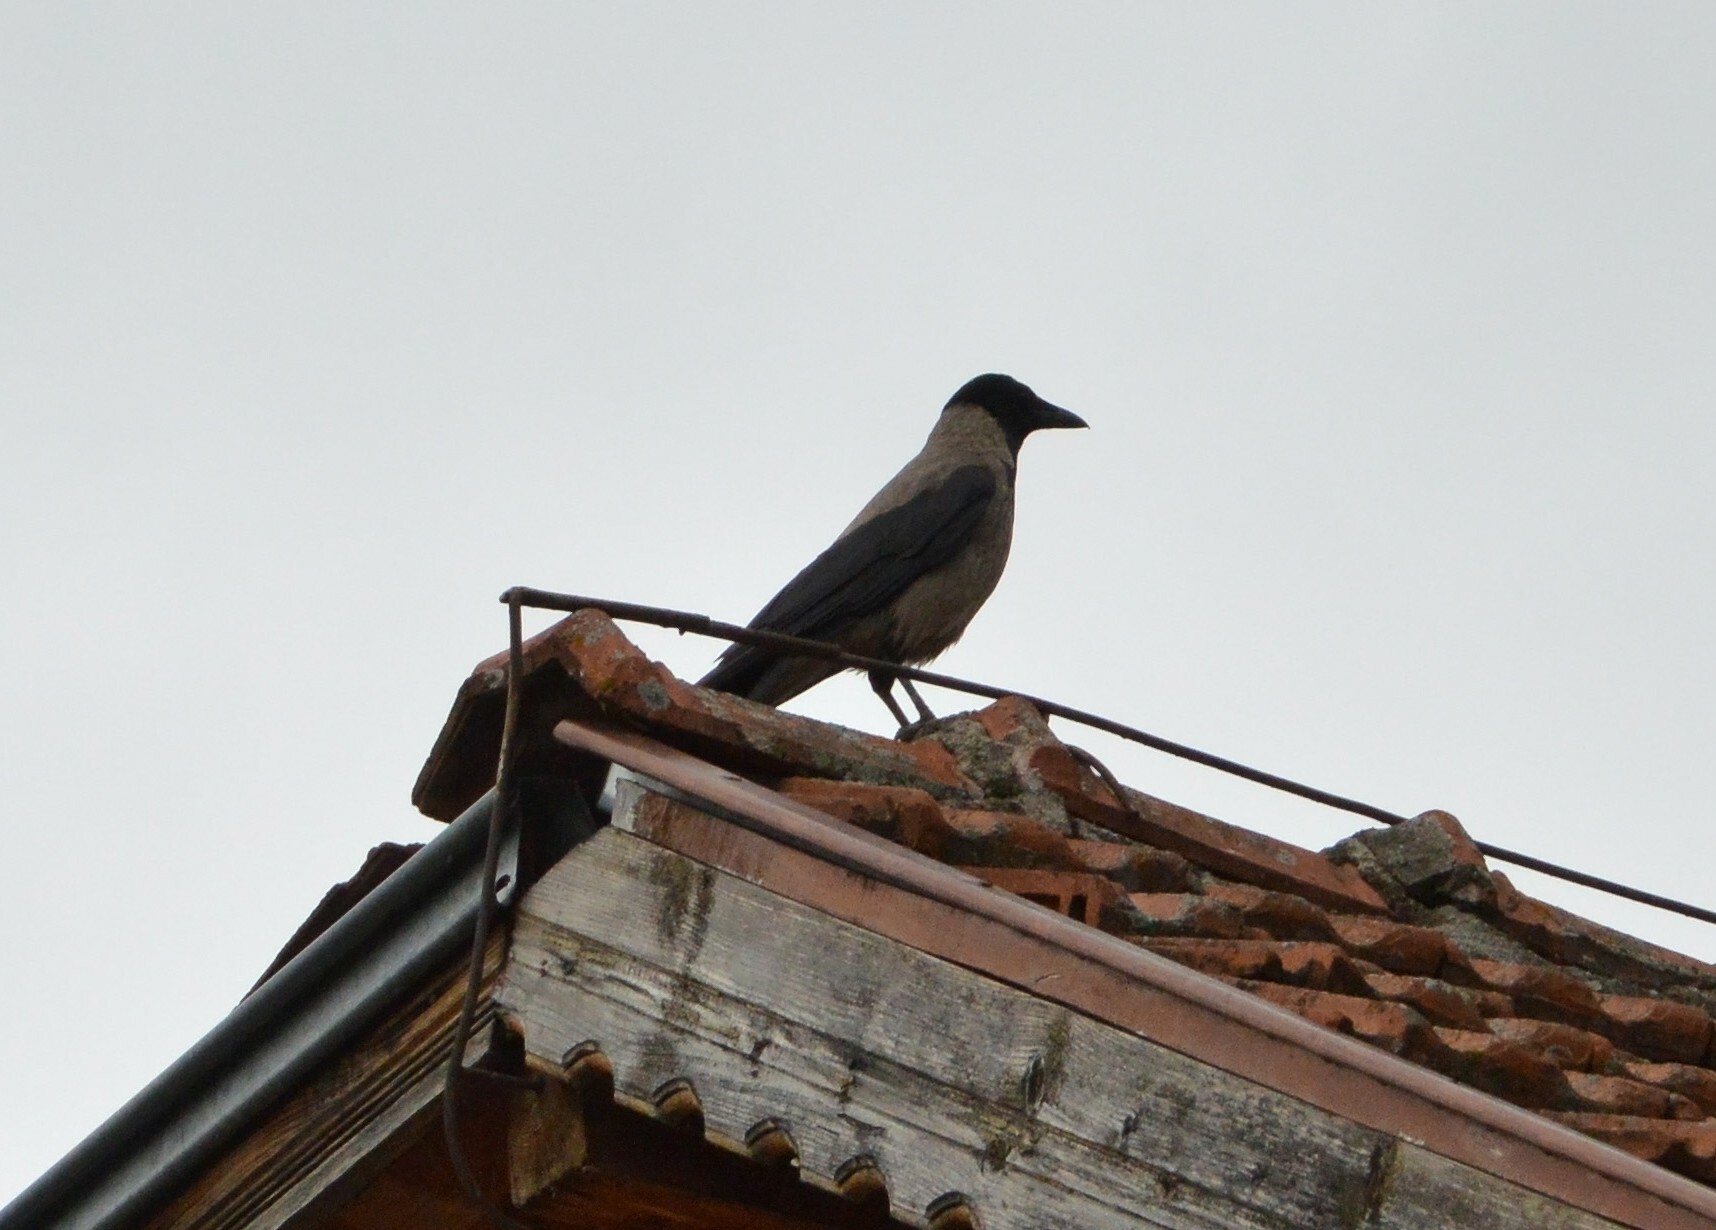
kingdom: Animalia
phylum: Chordata
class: Aves
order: Passeriformes
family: Corvidae
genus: Corvus
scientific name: Corvus cornix
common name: Hooded crow
